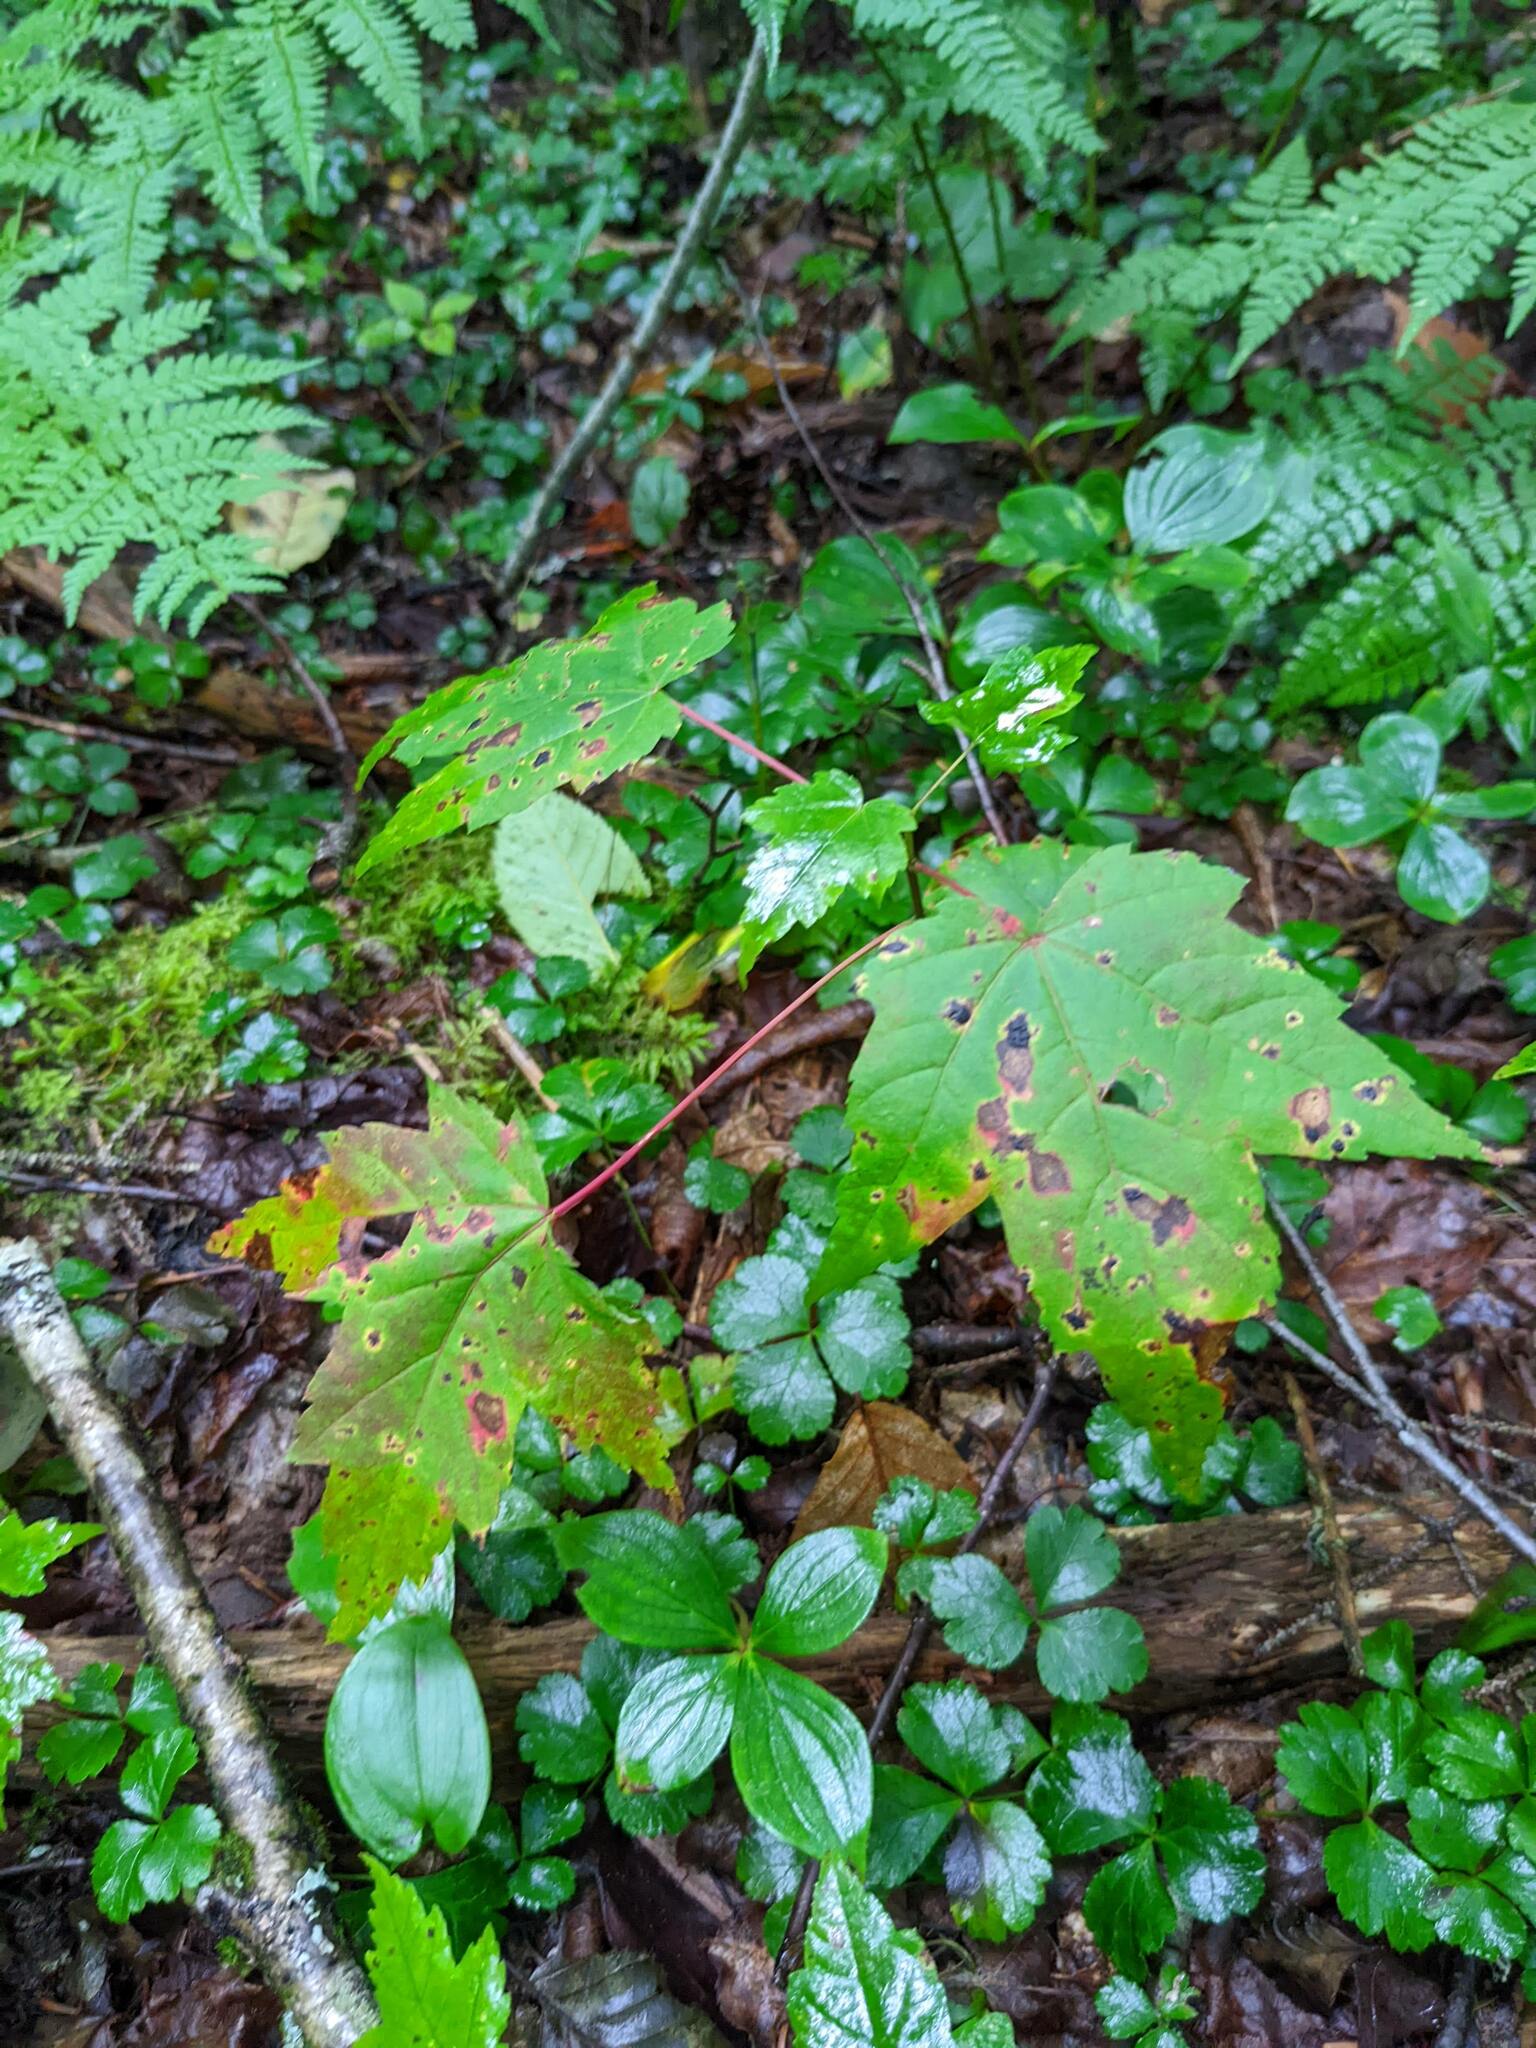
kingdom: Plantae
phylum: Tracheophyta
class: Magnoliopsida
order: Sapindales
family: Sapindaceae
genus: Acer
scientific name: Acer rubrum
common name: Red maple
